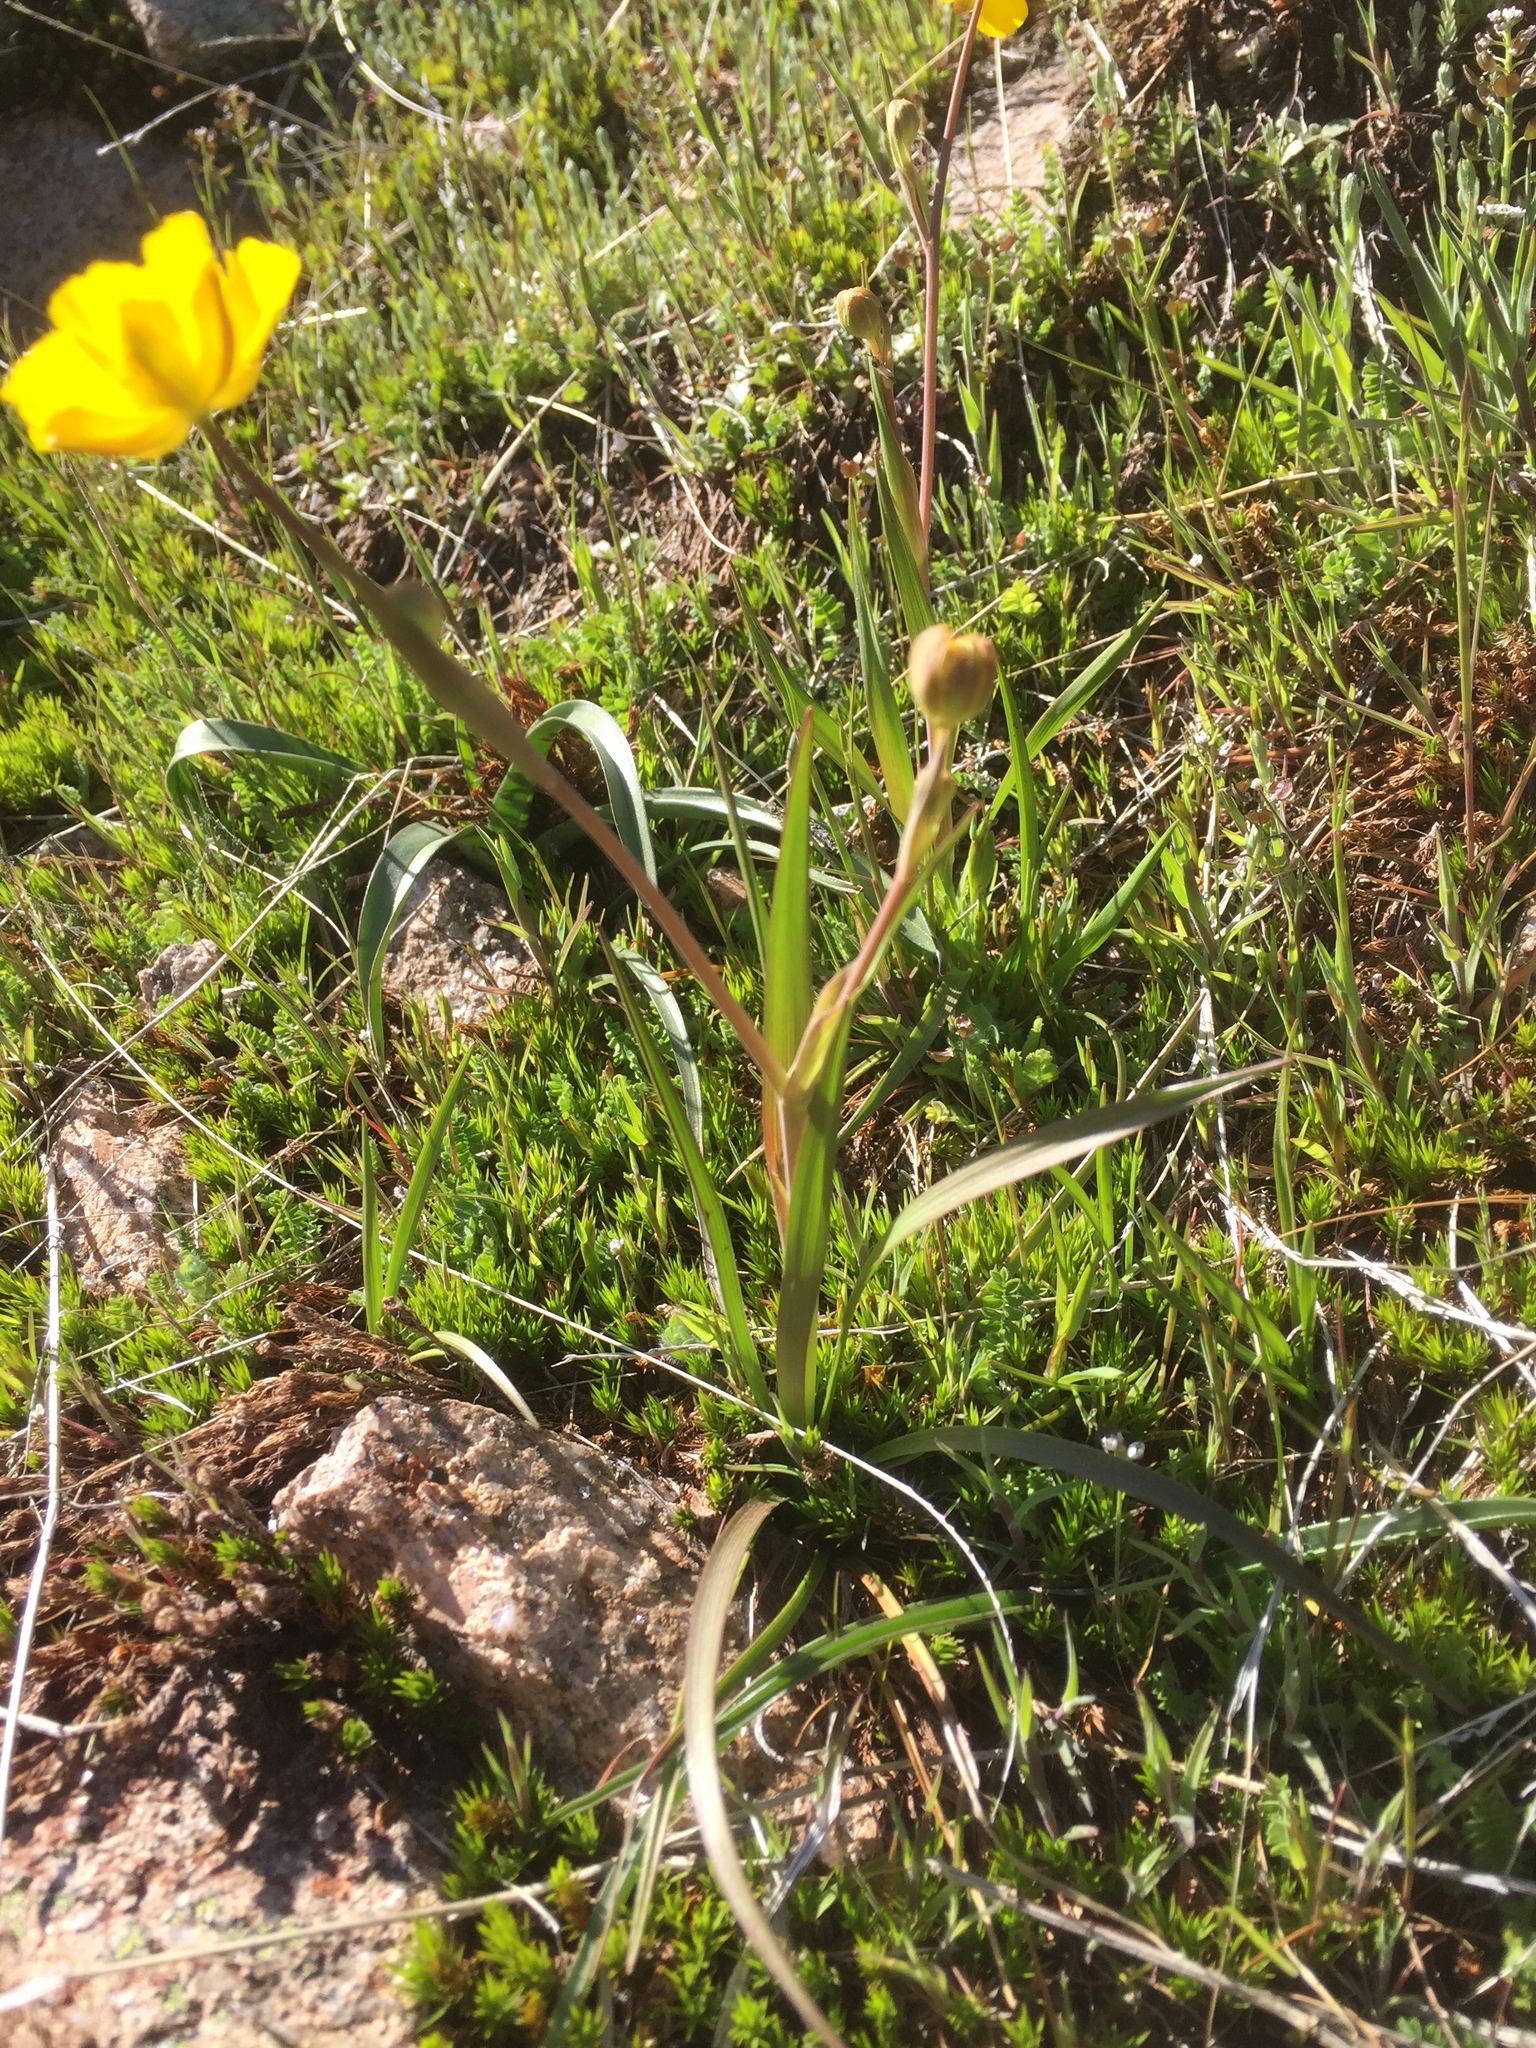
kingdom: Plantae
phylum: Tracheophyta
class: Magnoliopsida
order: Ranunculales
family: Ranunculaceae
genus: Ranunculus
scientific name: Ranunculus abnormis
